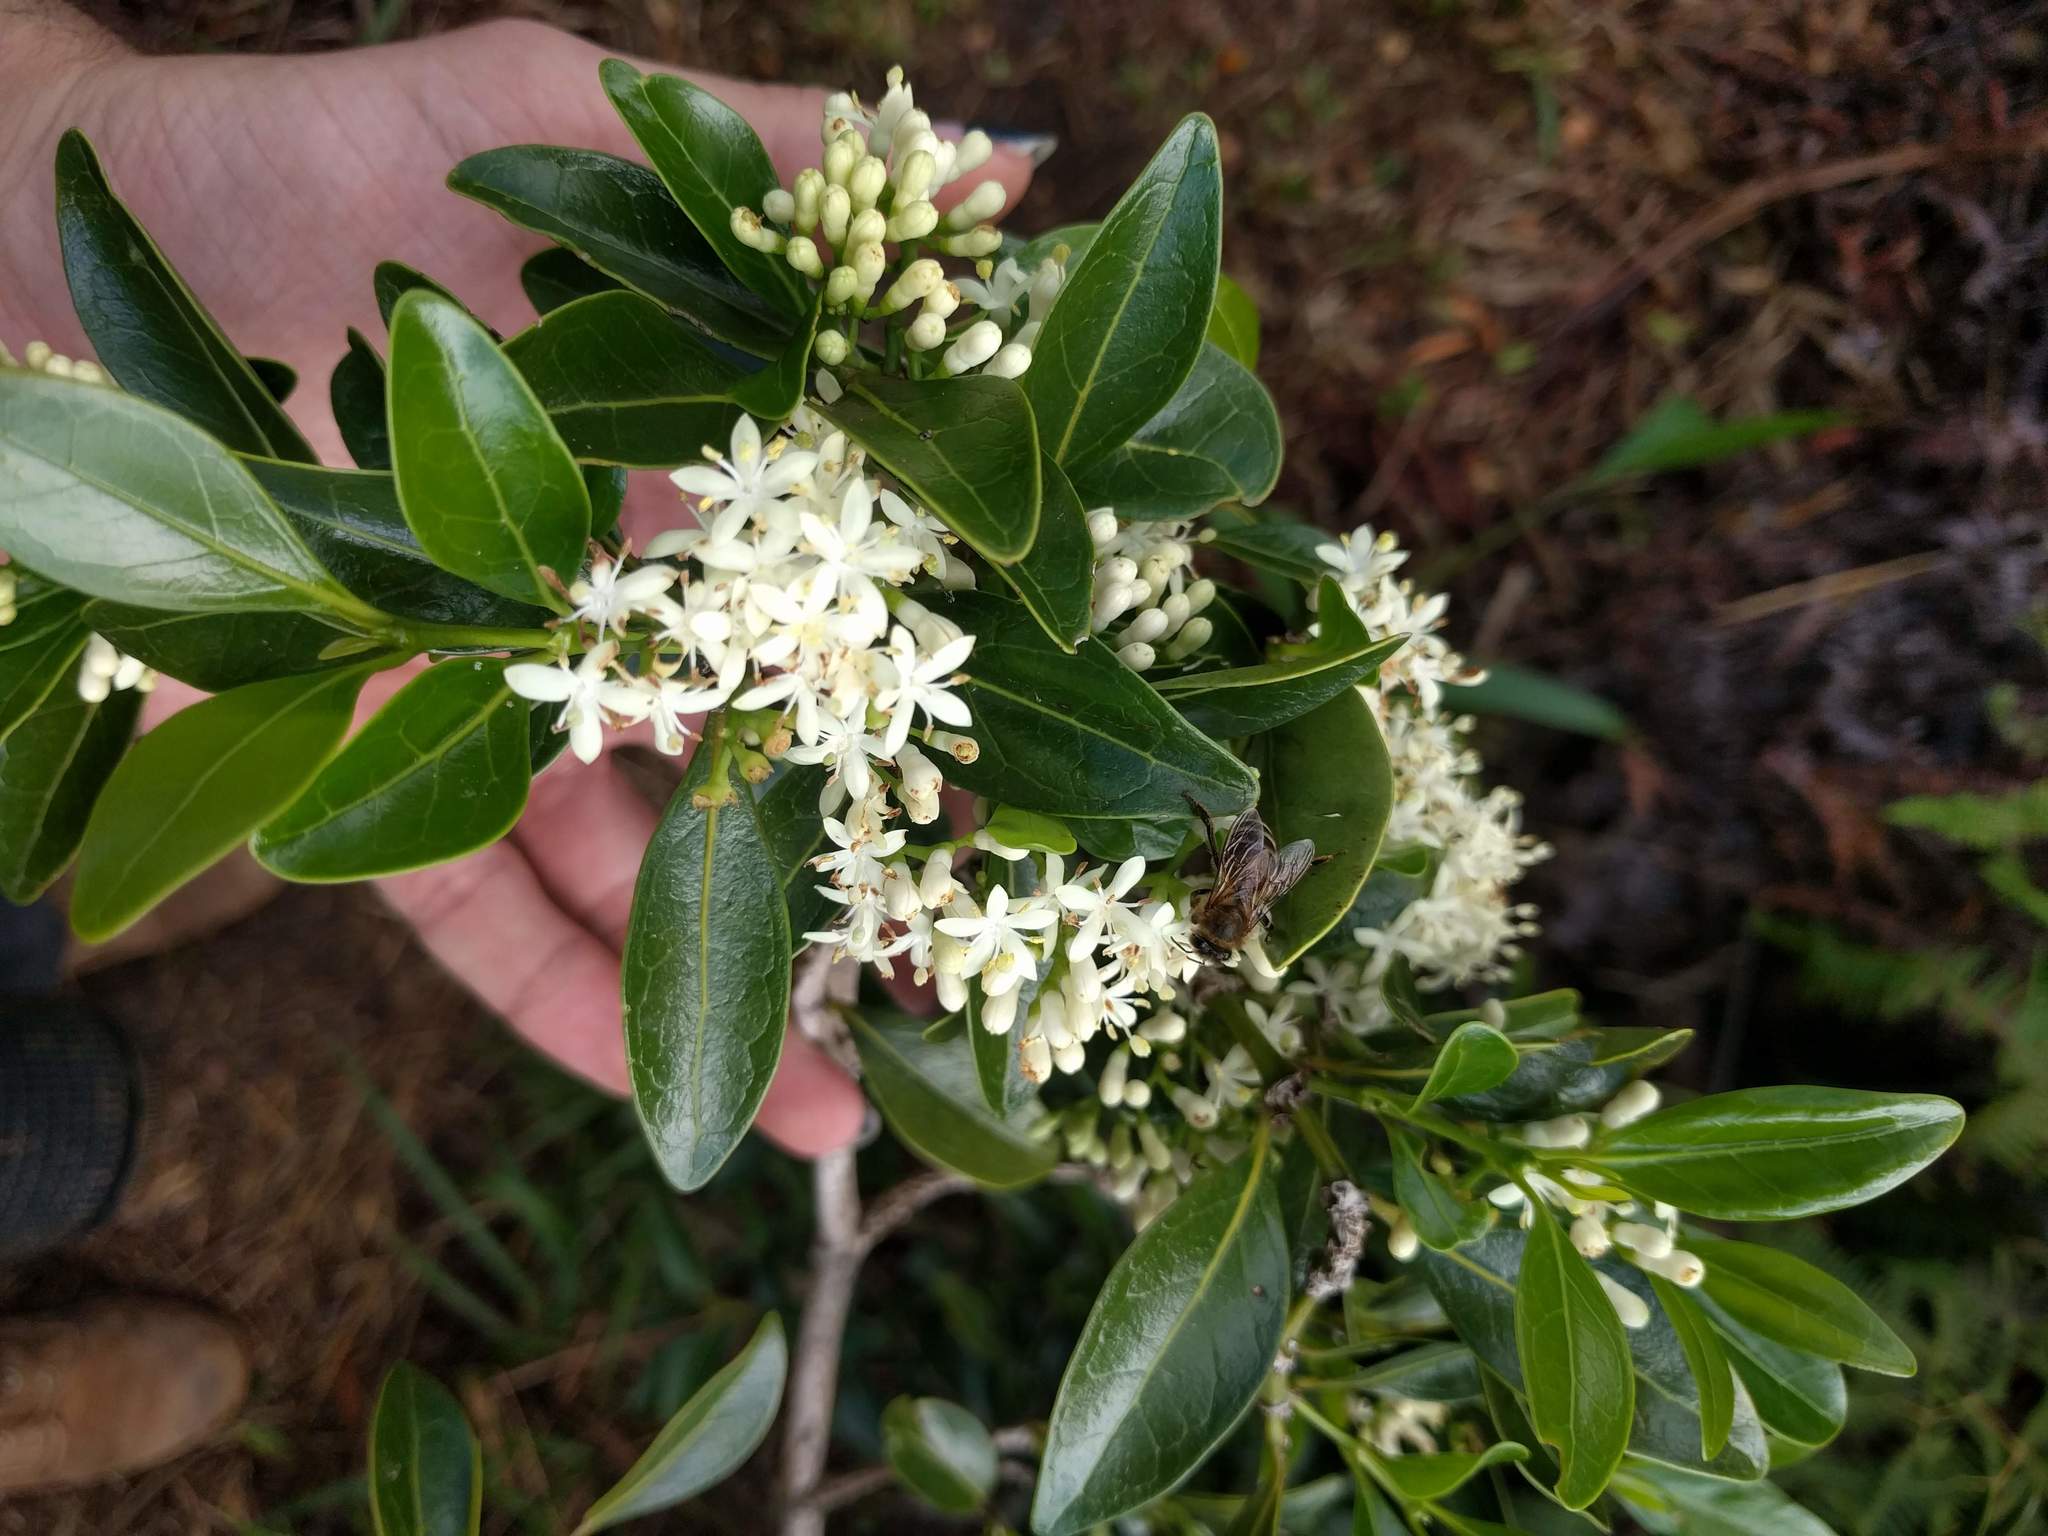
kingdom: Plantae
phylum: Tracheophyta
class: Magnoliopsida
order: Gentianales
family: Rubiaceae
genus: Psydrax
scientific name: Psydrax odoratus
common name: Alahe'e
